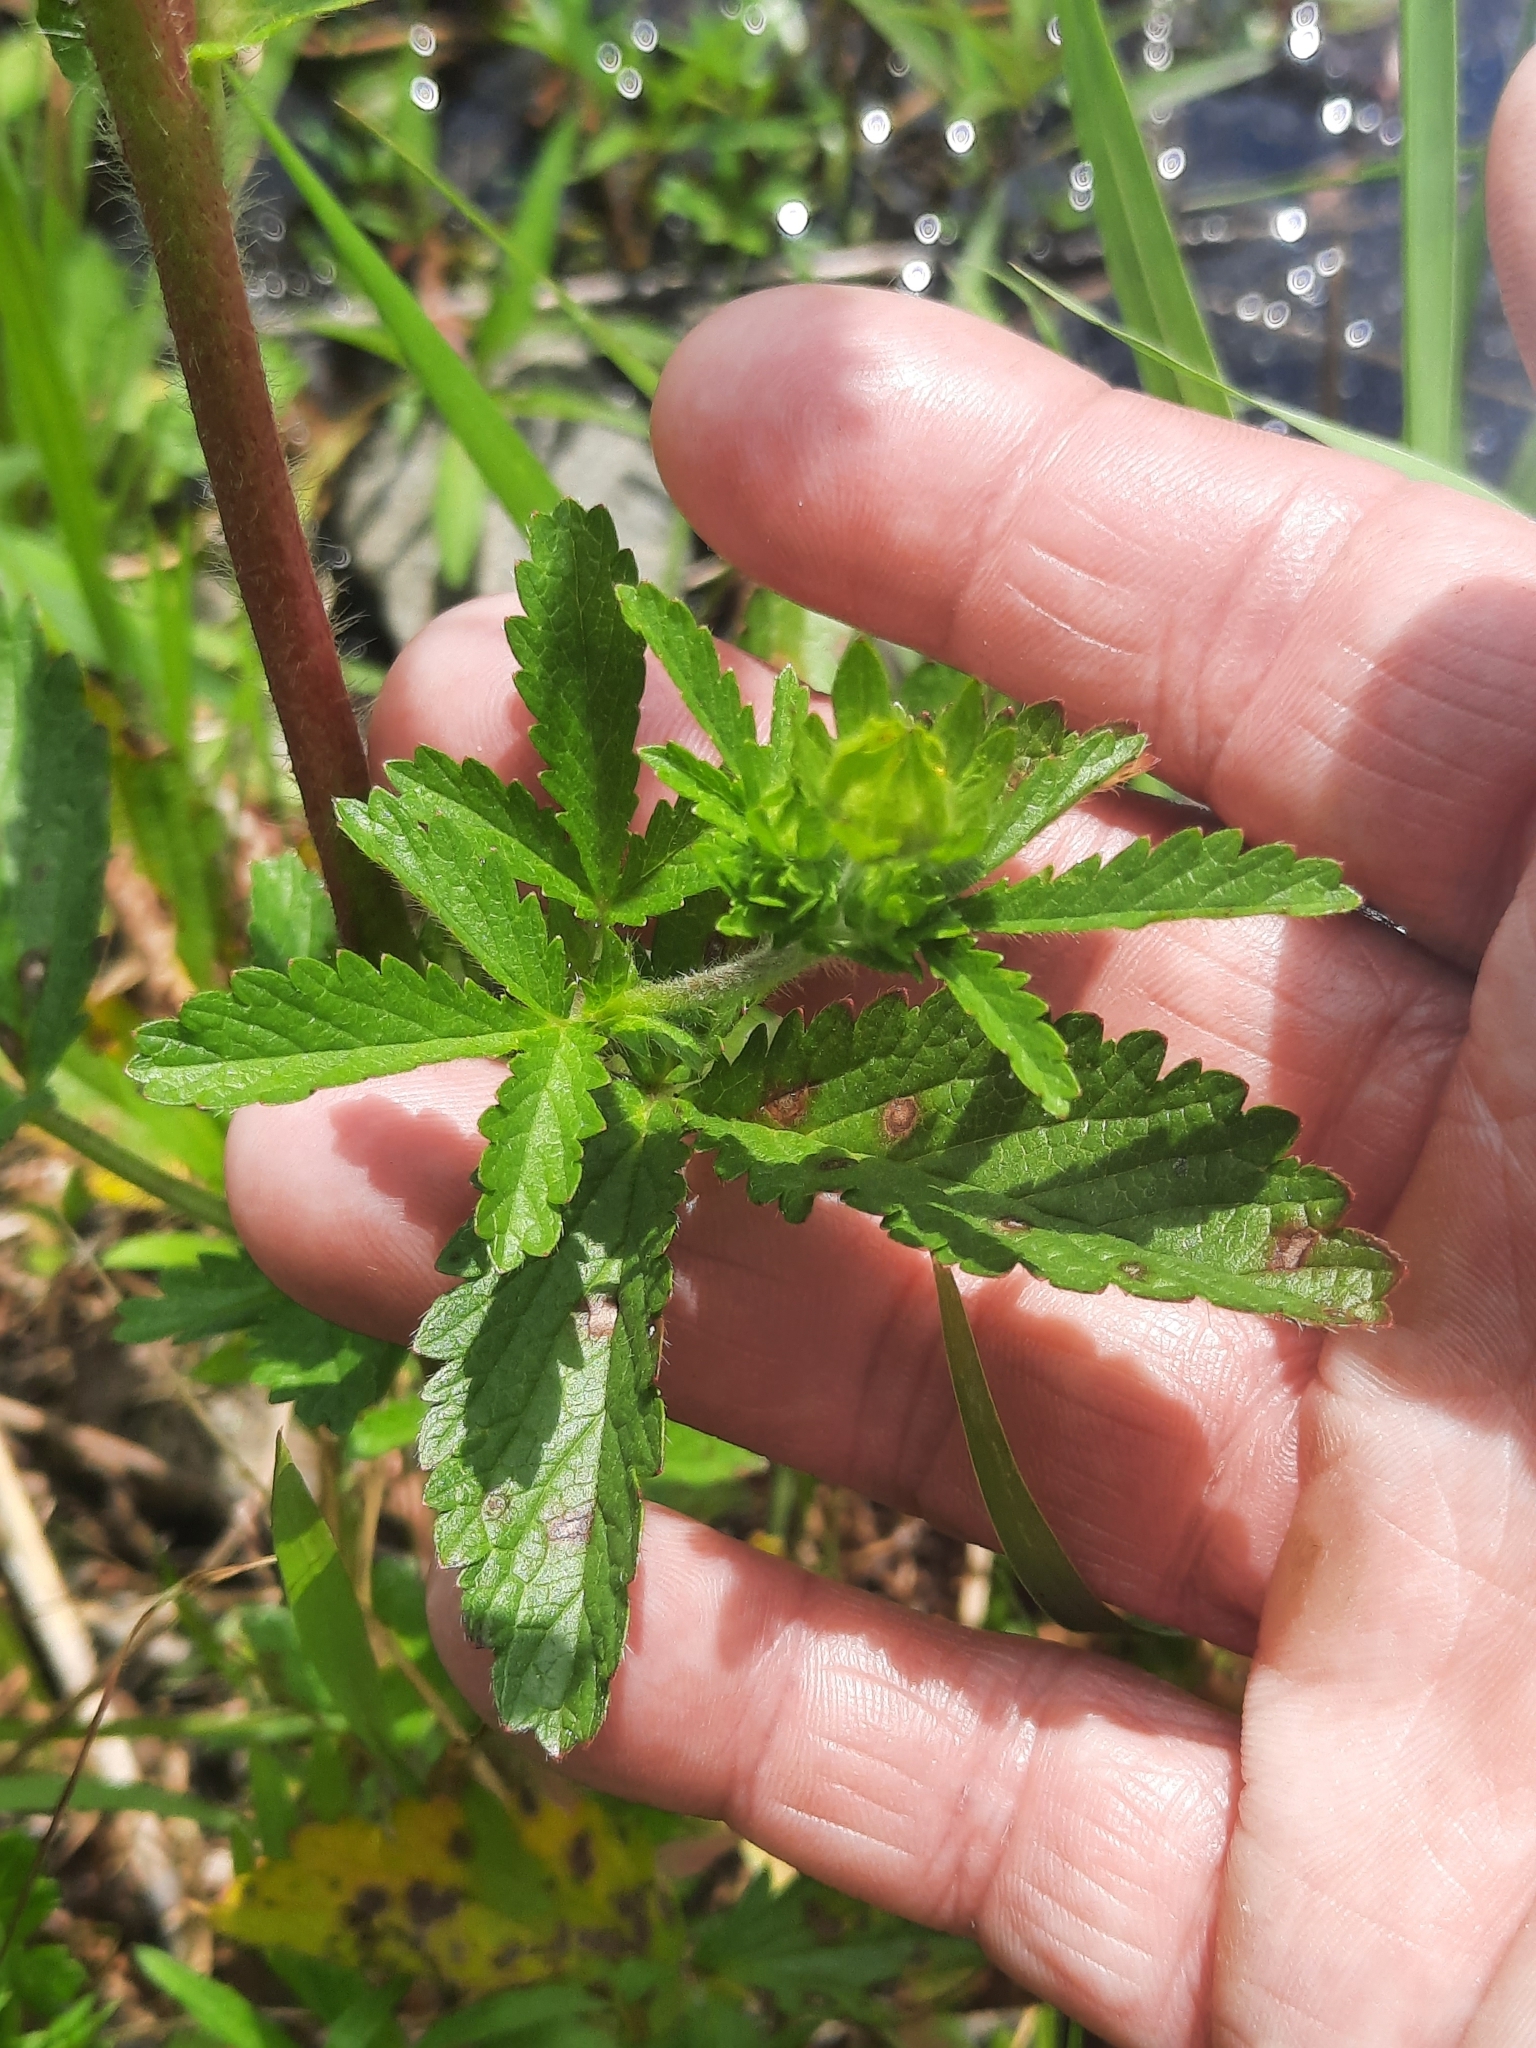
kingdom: Plantae
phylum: Tracheophyta
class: Magnoliopsida
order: Rosales
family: Rosaceae
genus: Potentilla
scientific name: Potentilla norvegica
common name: Ternate-leaved cinquefoil
